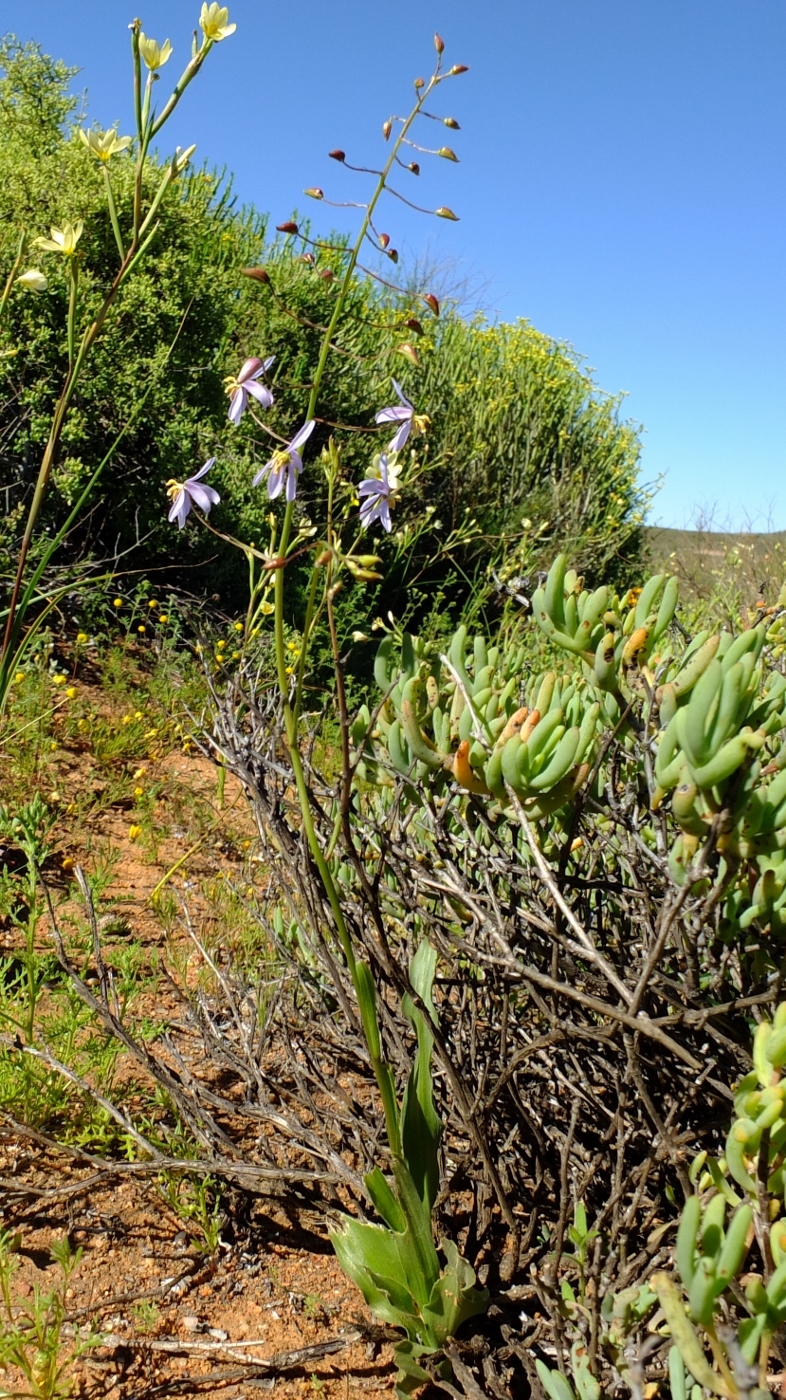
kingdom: Plantae
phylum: Tracheophyta
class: Liliopsida
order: Asparagales
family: Tecophilaeaceae
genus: Cyanella
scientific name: Cyanella hyacinthoides
